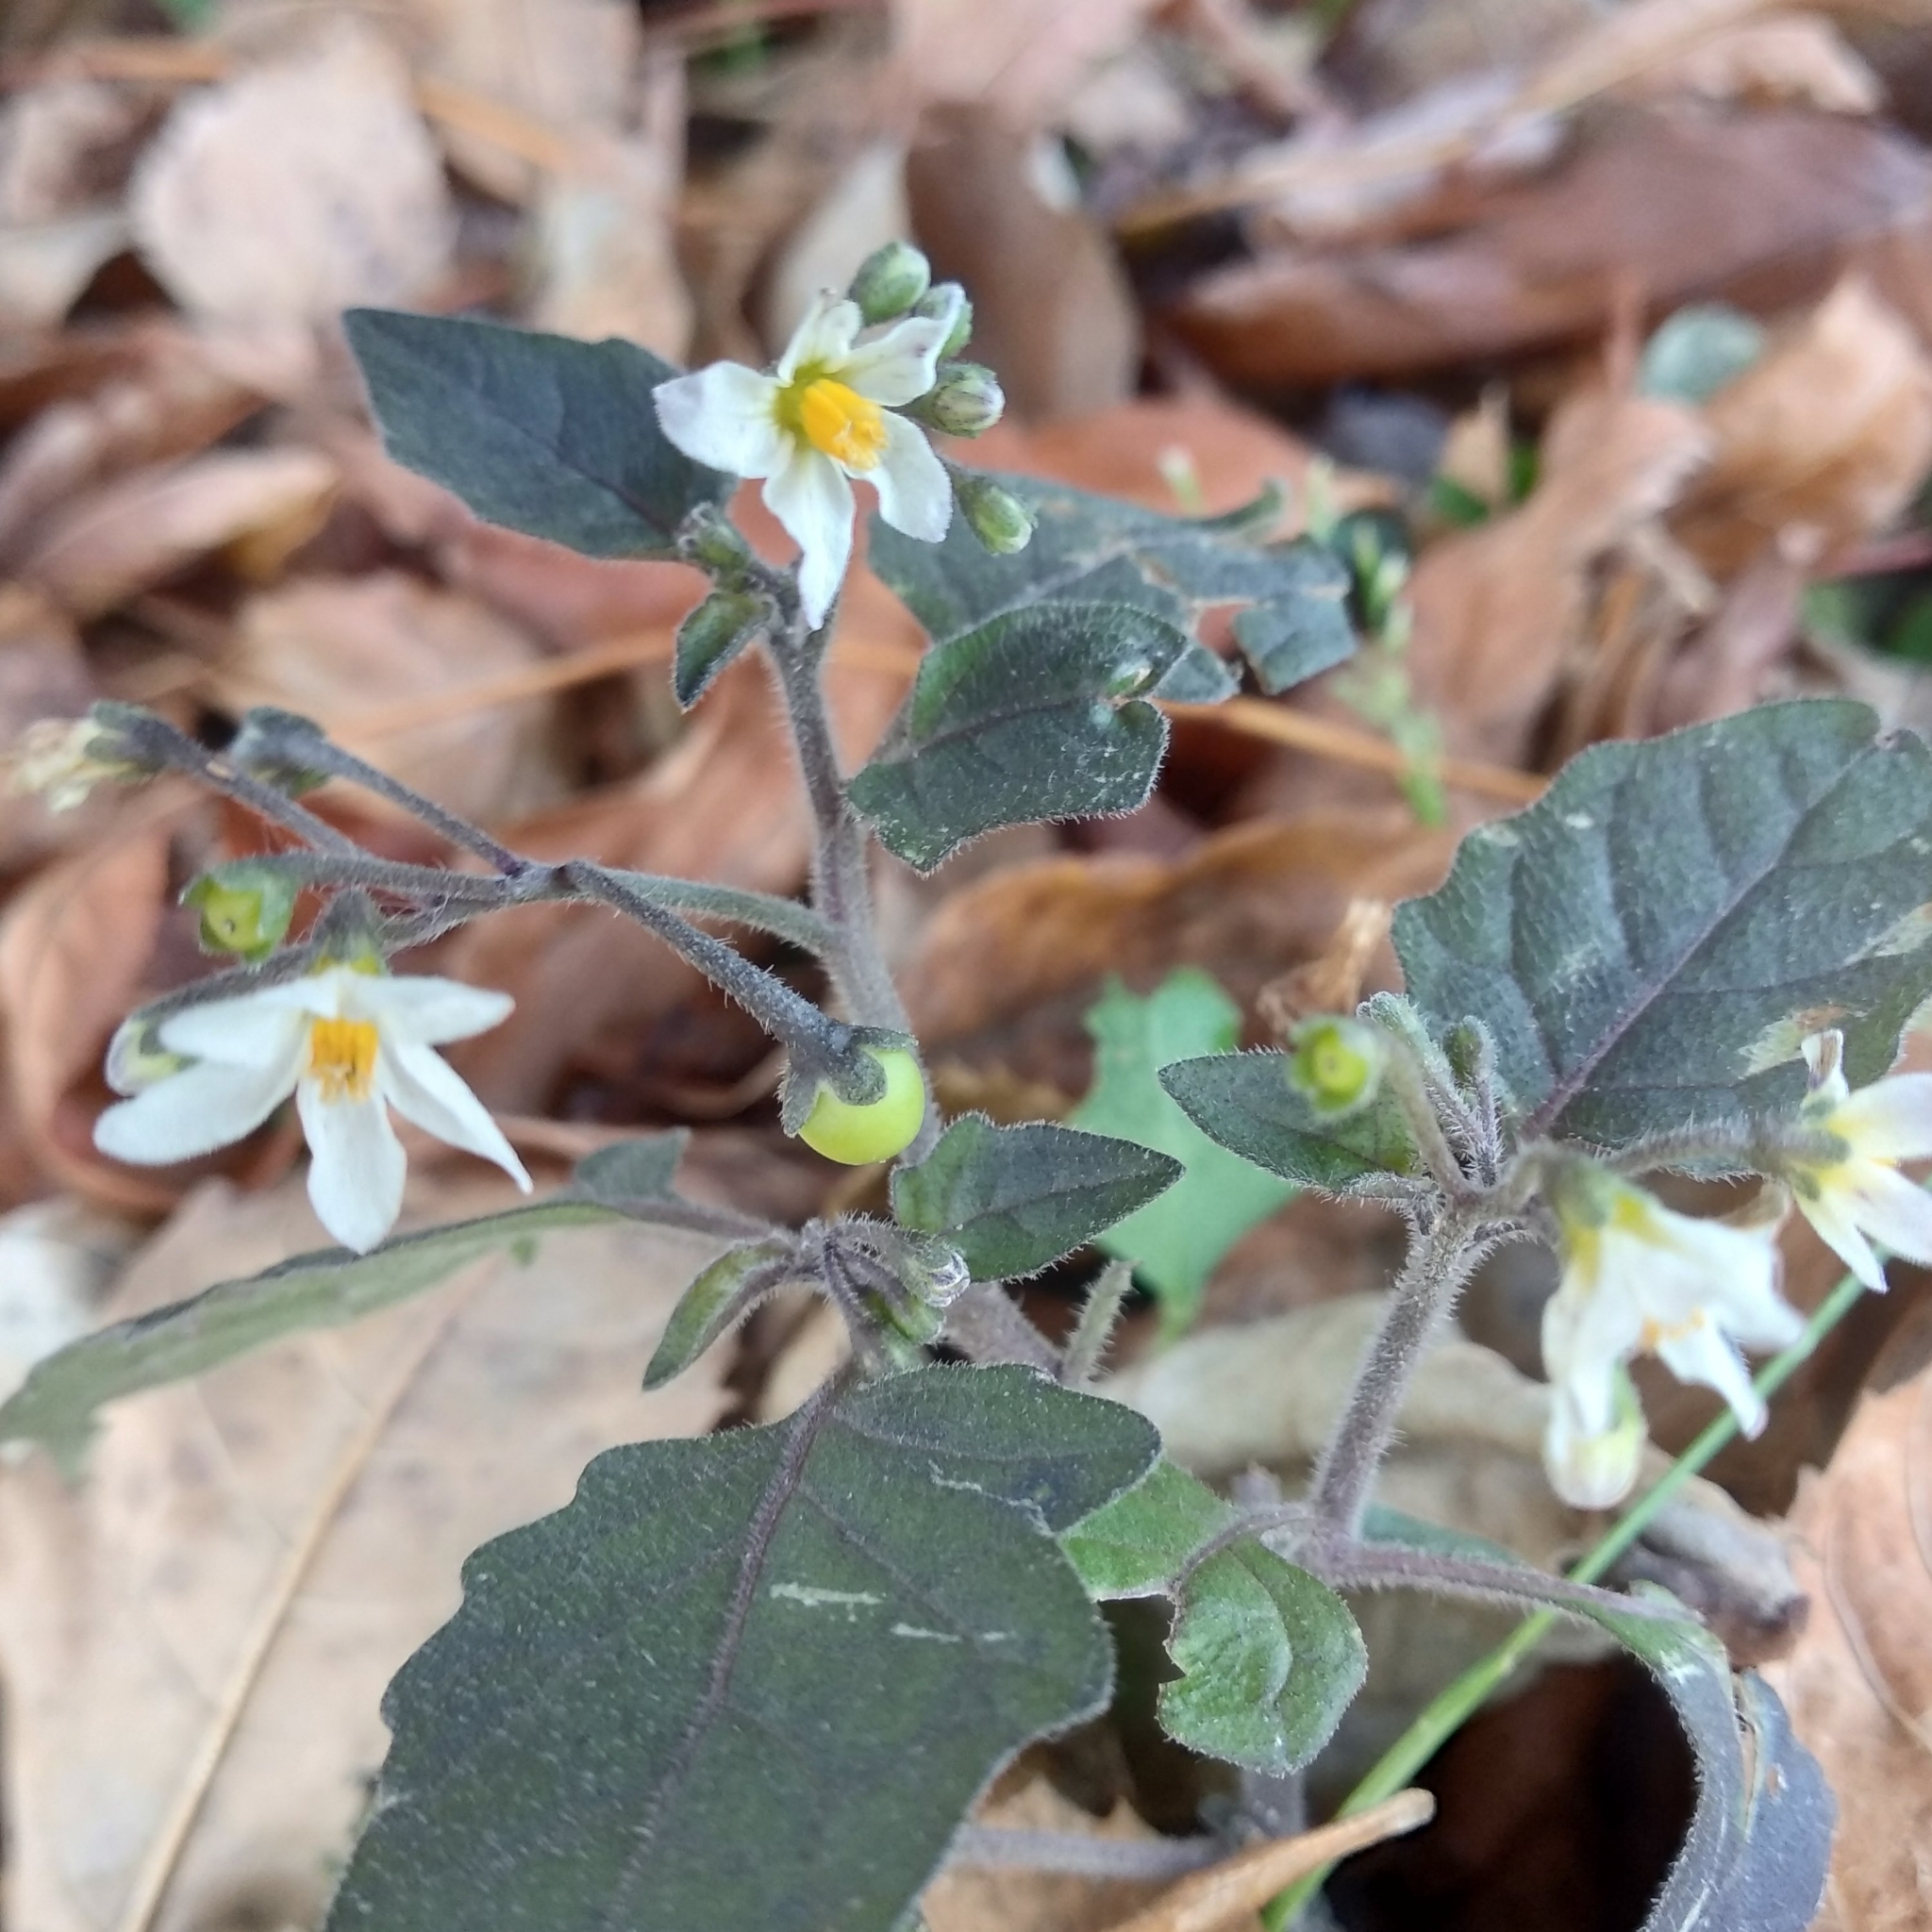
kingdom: Plantae
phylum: Tracheophyta
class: Magnoliopsida
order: Solanales
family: Solanaceae
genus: Solanum
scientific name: Solanum nigrum
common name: Black nightshade
